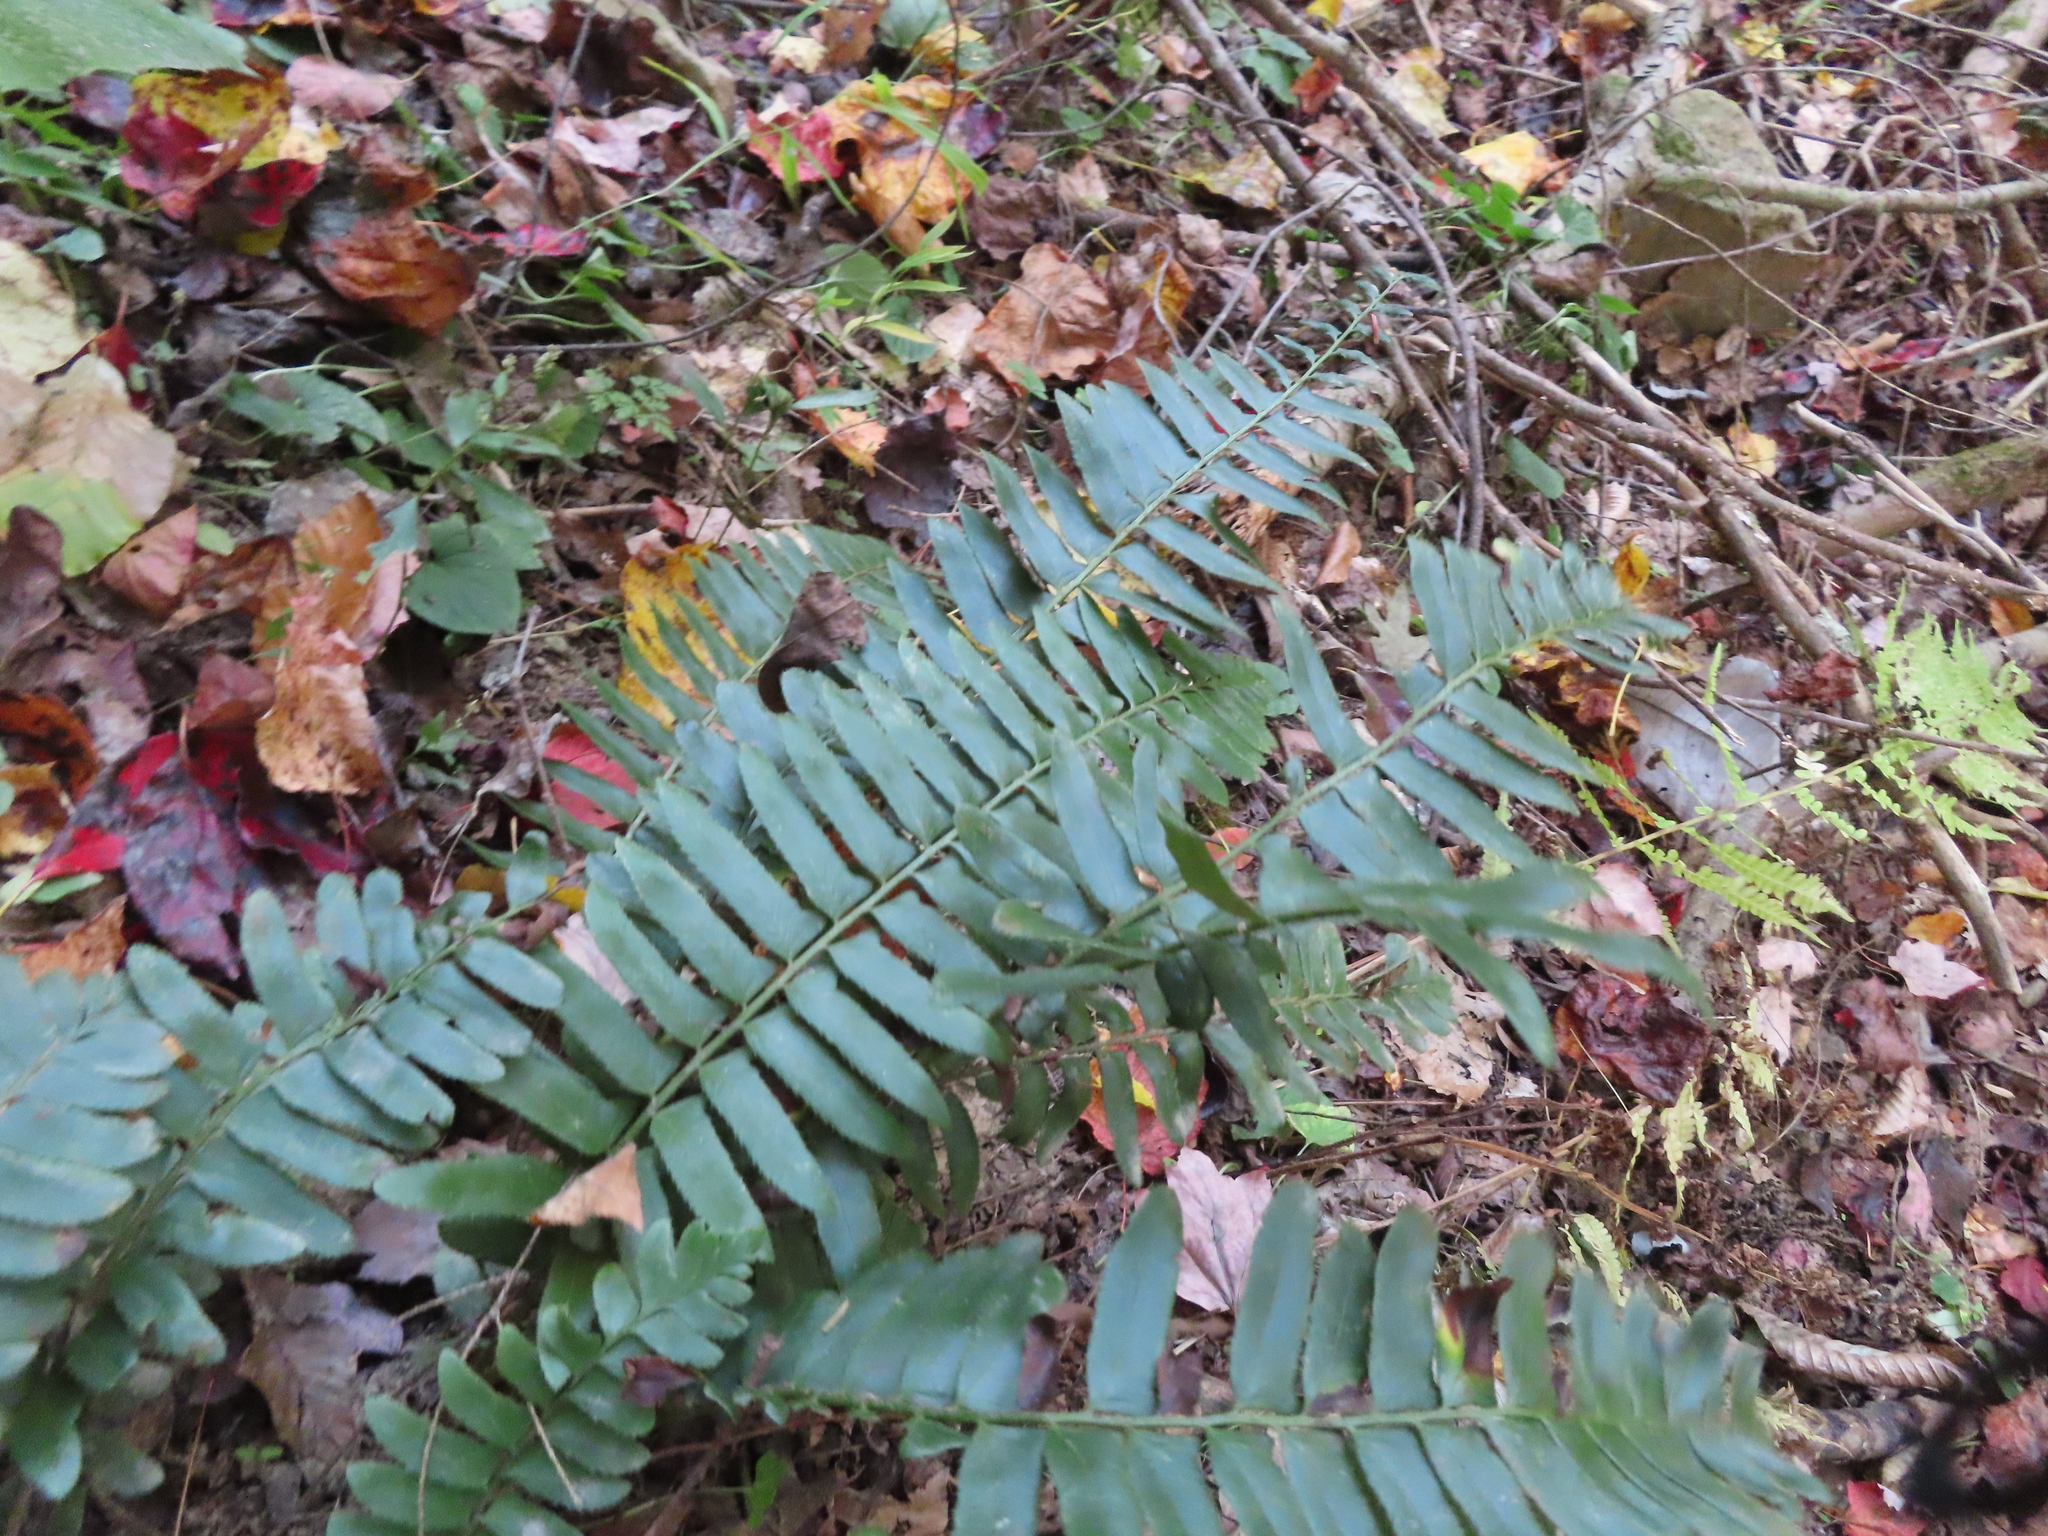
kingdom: Plantae
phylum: Tracheophyta
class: Polypodiopsida
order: Polypodiales
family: Dryopteridaceae
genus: Polystichum
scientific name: Polystichum acrostichoides
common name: Christmas fern
